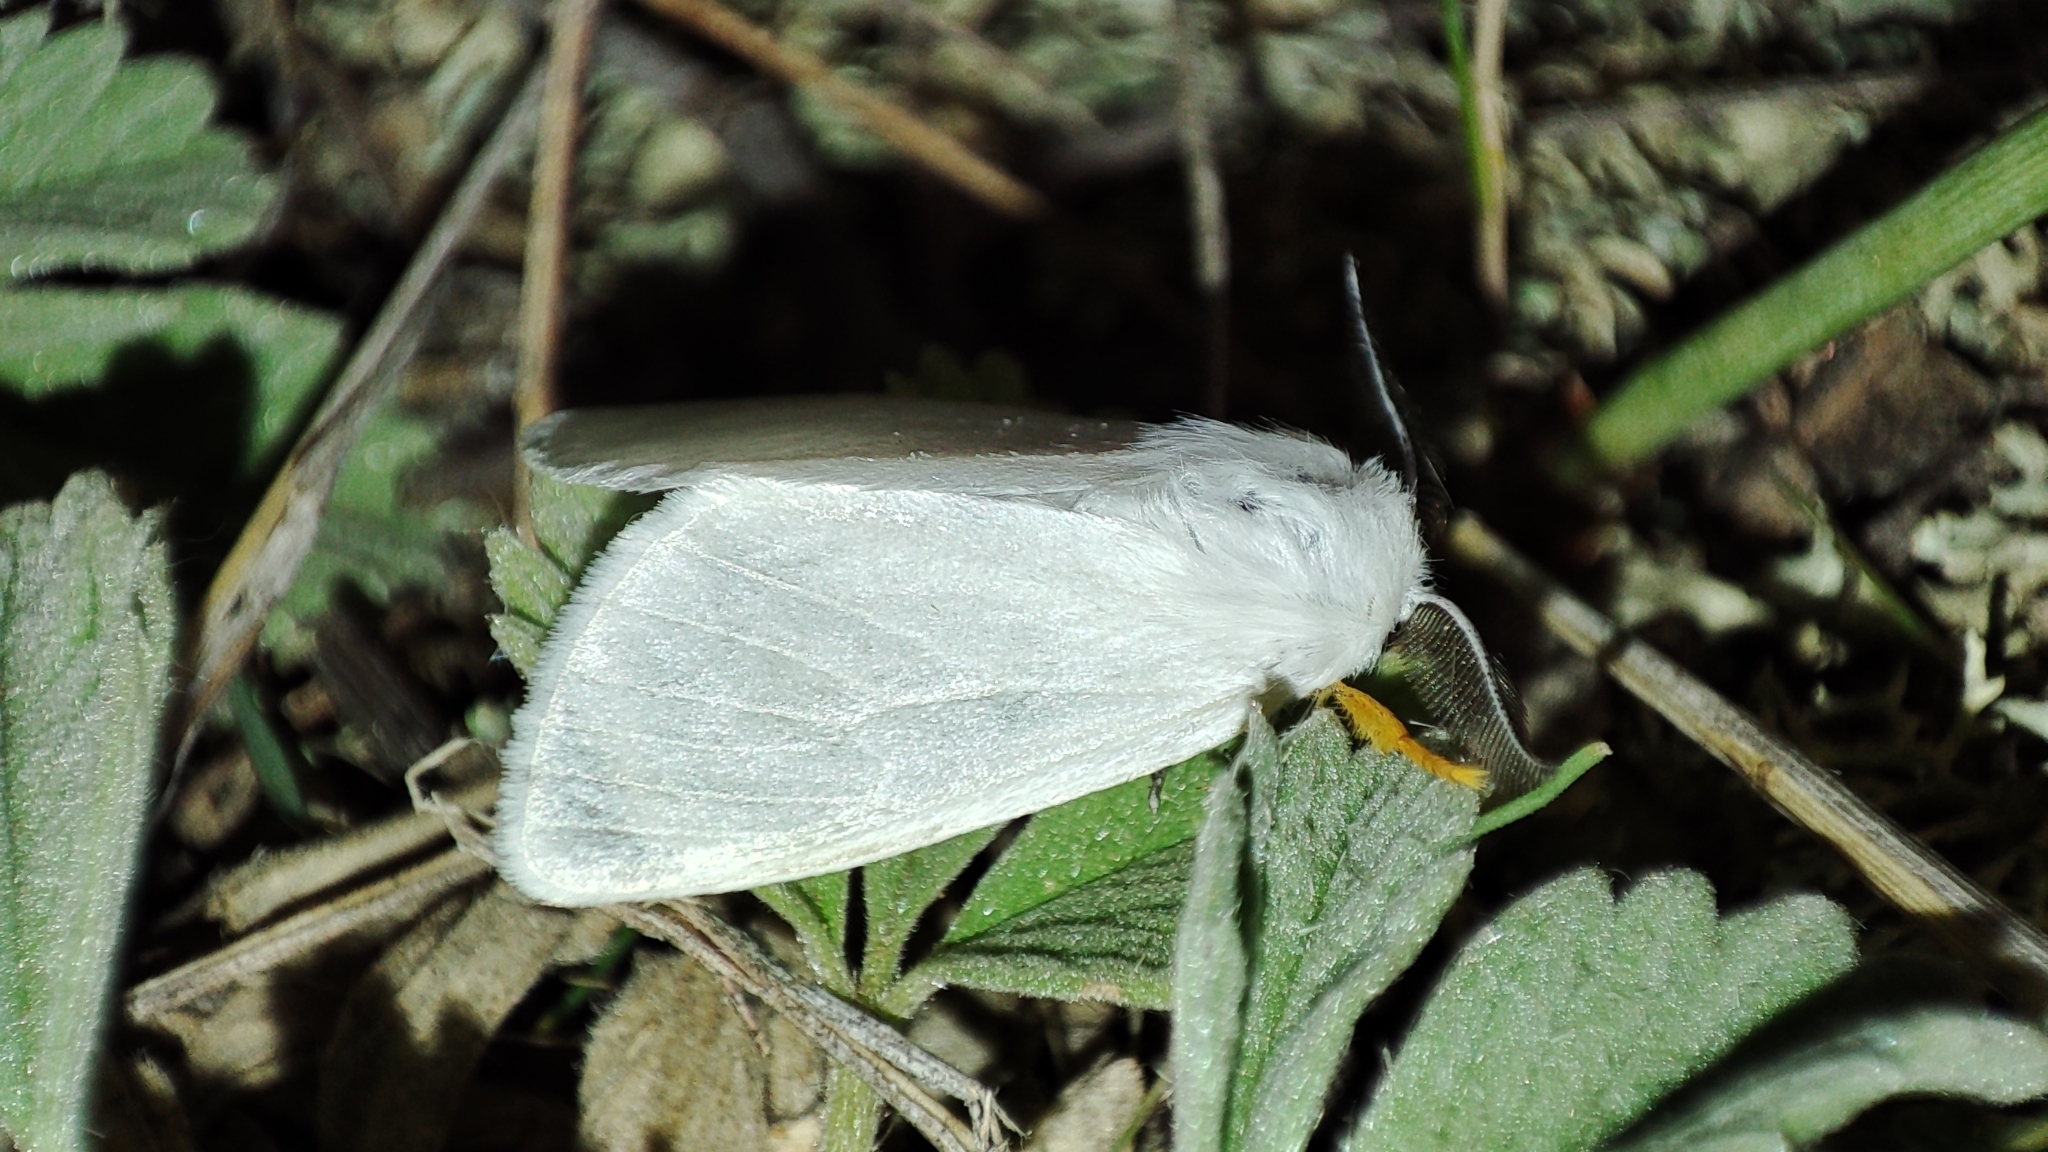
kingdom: Animalia
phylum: Arthropoda
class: Insecta
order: Lepidoptera
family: Erebidae
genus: Ivela
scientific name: Ivela
